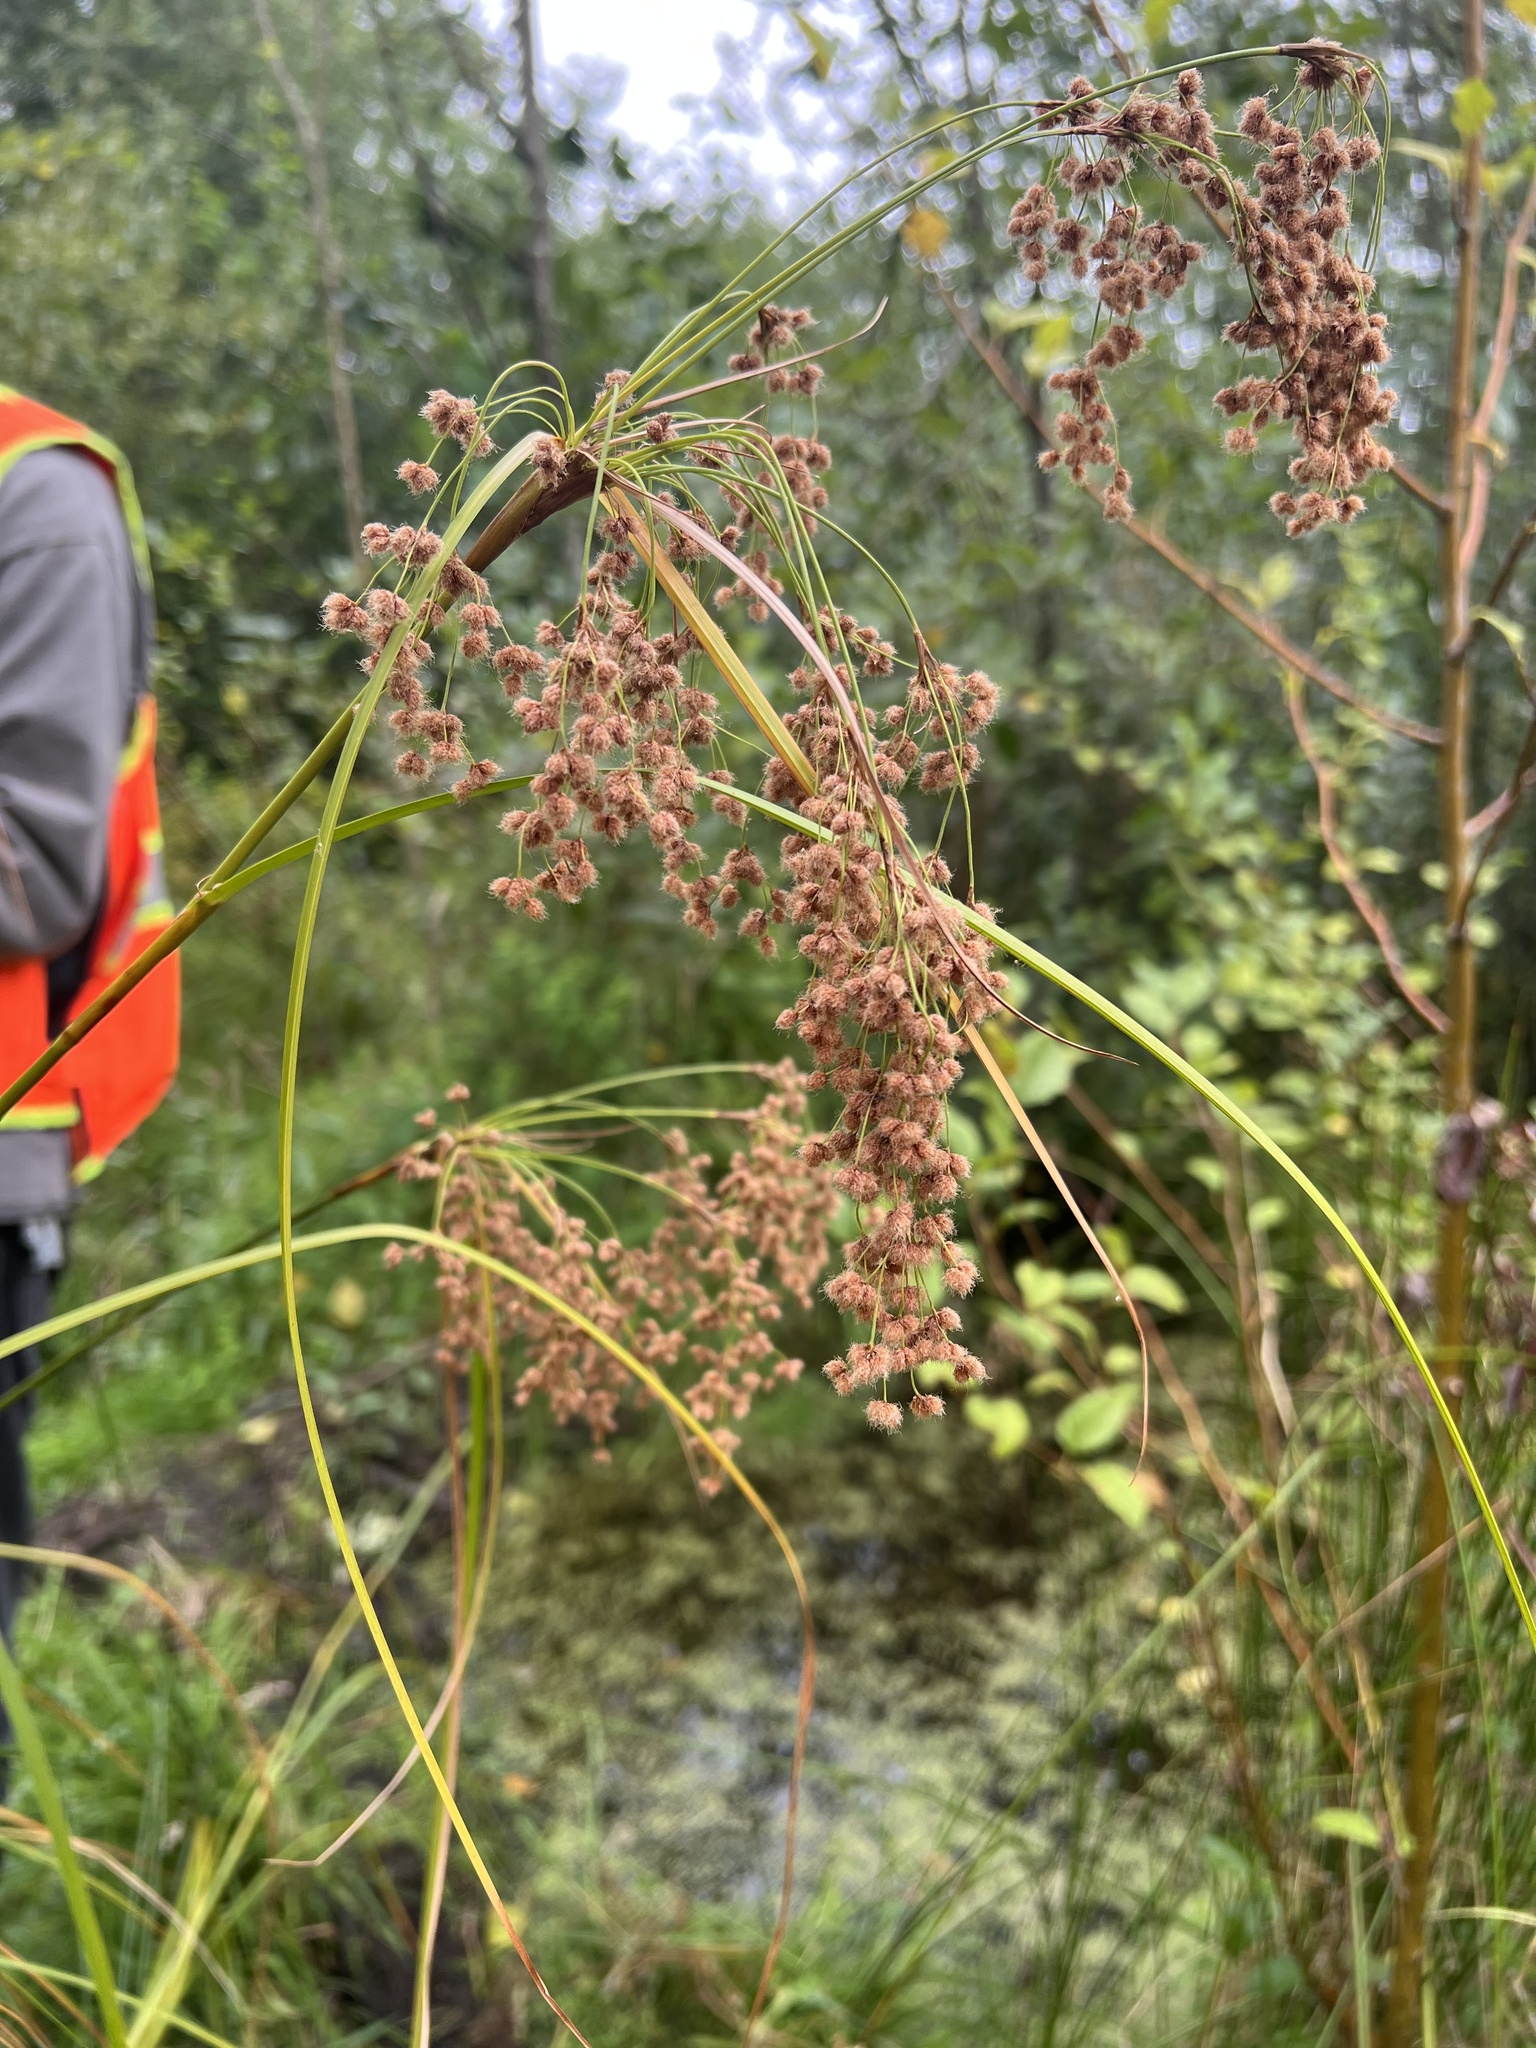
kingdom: Plantae
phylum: Tracheophyta
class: Liliopsida
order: Poales
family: Cyperaceae
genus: Scirpus
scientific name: Scirpus cyperinus
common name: Black-sheathed bulrush
